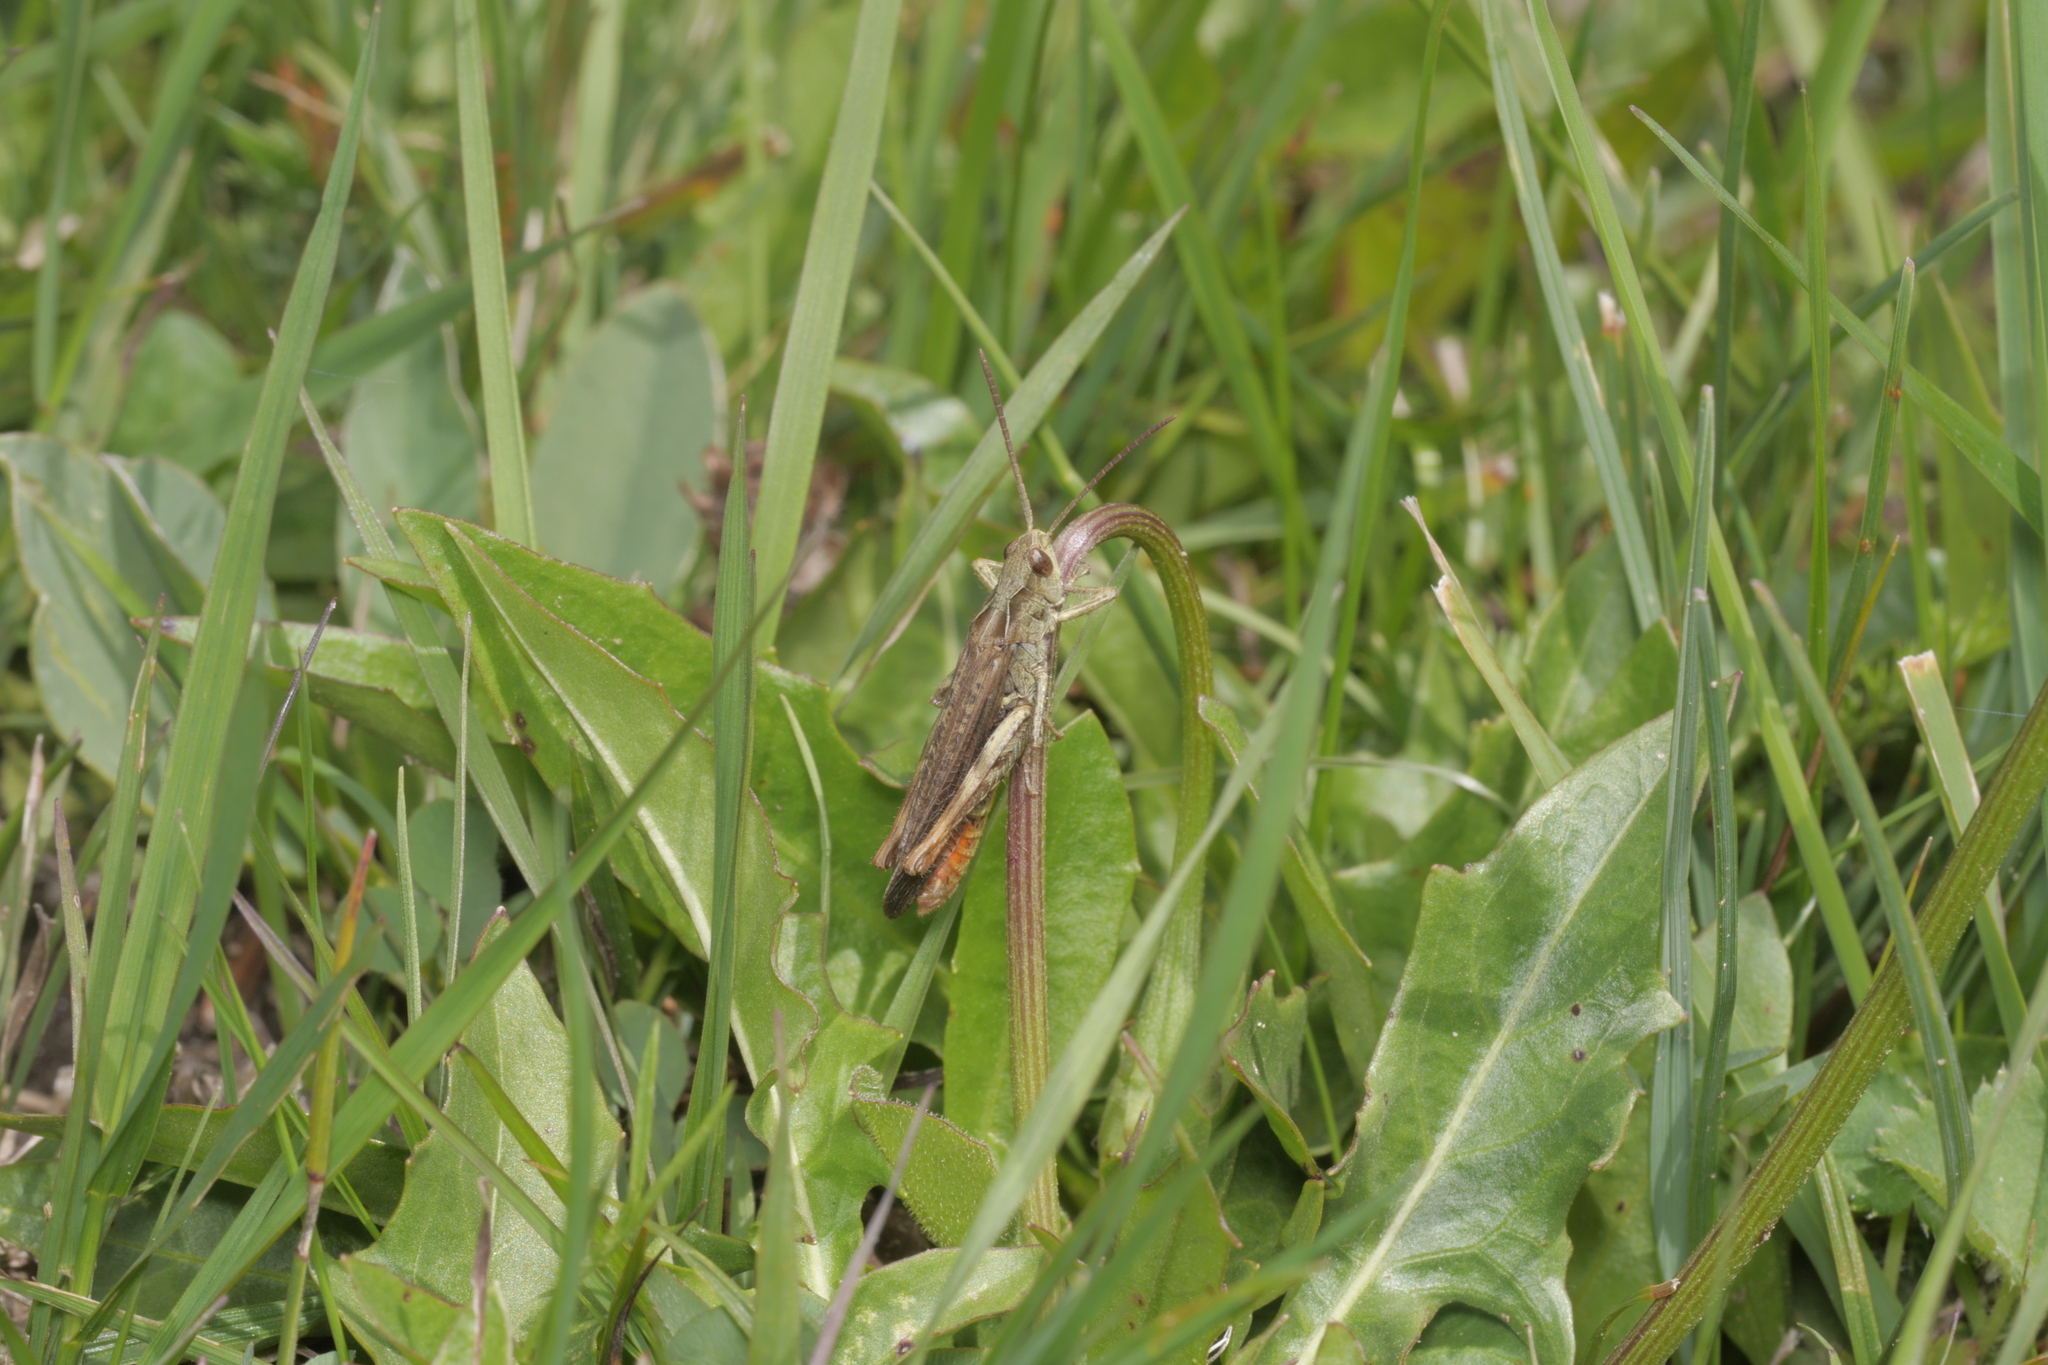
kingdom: Animalia
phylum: Arthropoda
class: Insecta
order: Orthoptera
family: Acrididae
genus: Chorthippus
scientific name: Chorthippus biguttulus
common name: Bow-winged grasshopper
